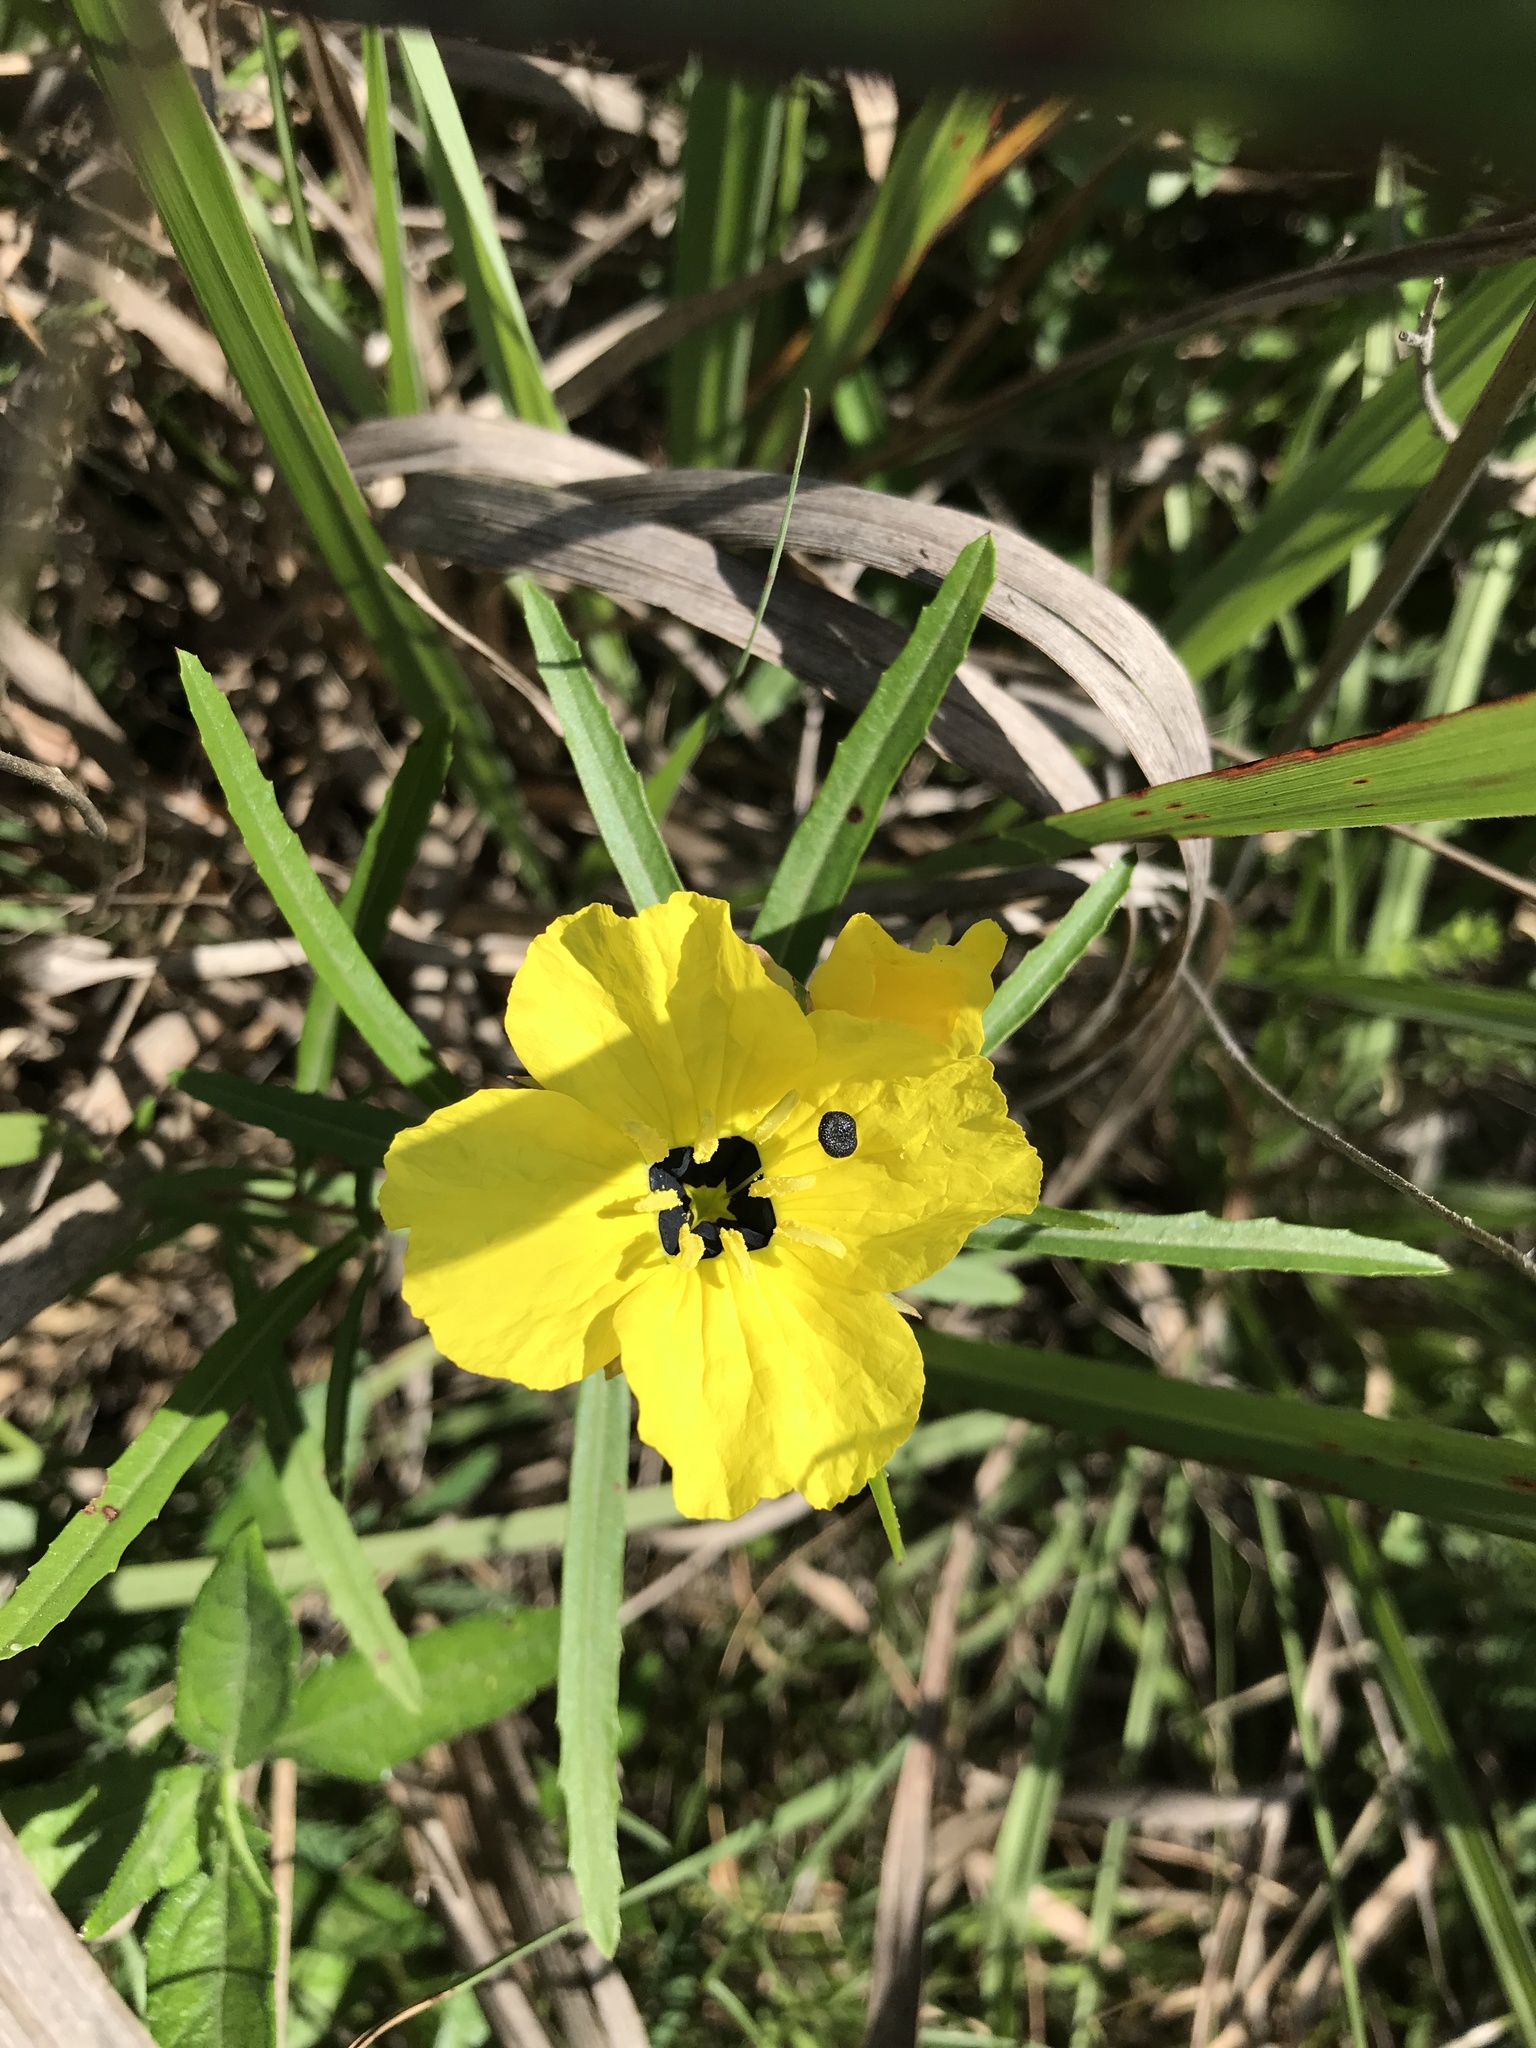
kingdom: Plantae
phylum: Tracheophyta
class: Magnoliopsida
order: Myrtales
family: Onagraceae
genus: Oenothera
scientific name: Oenothera
